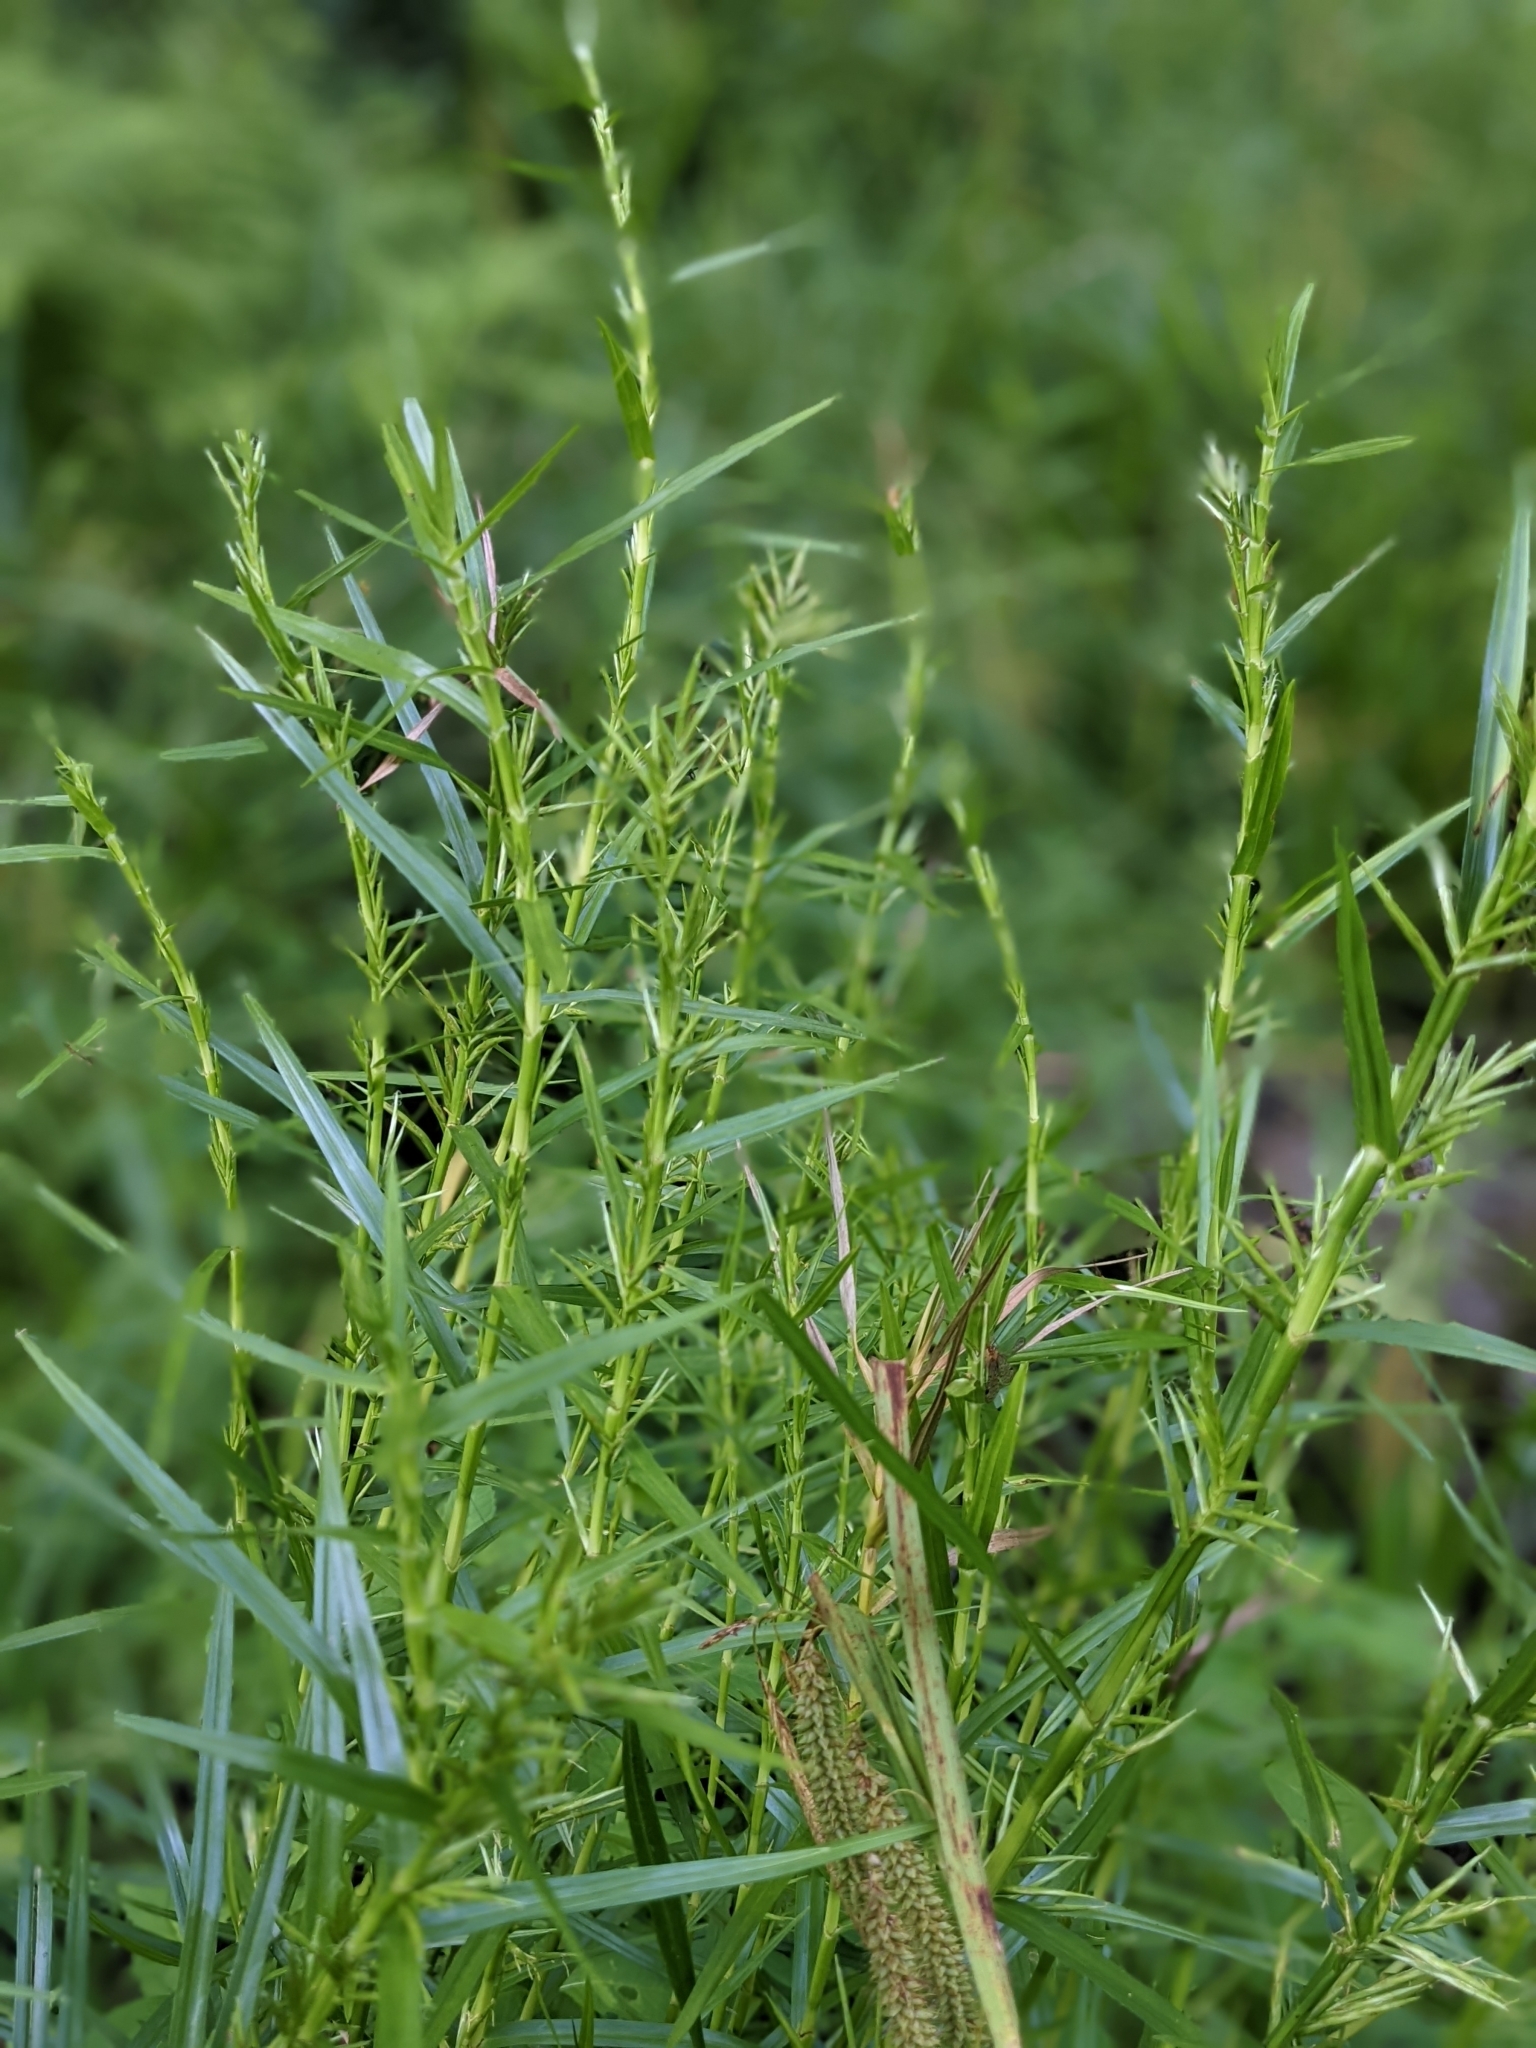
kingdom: Plantae
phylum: Tracheophyta
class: Liliopsida
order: Poales
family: Cyperaceae
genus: Dulichium
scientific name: Dulichium arundinaceum
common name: Three-way sedge
